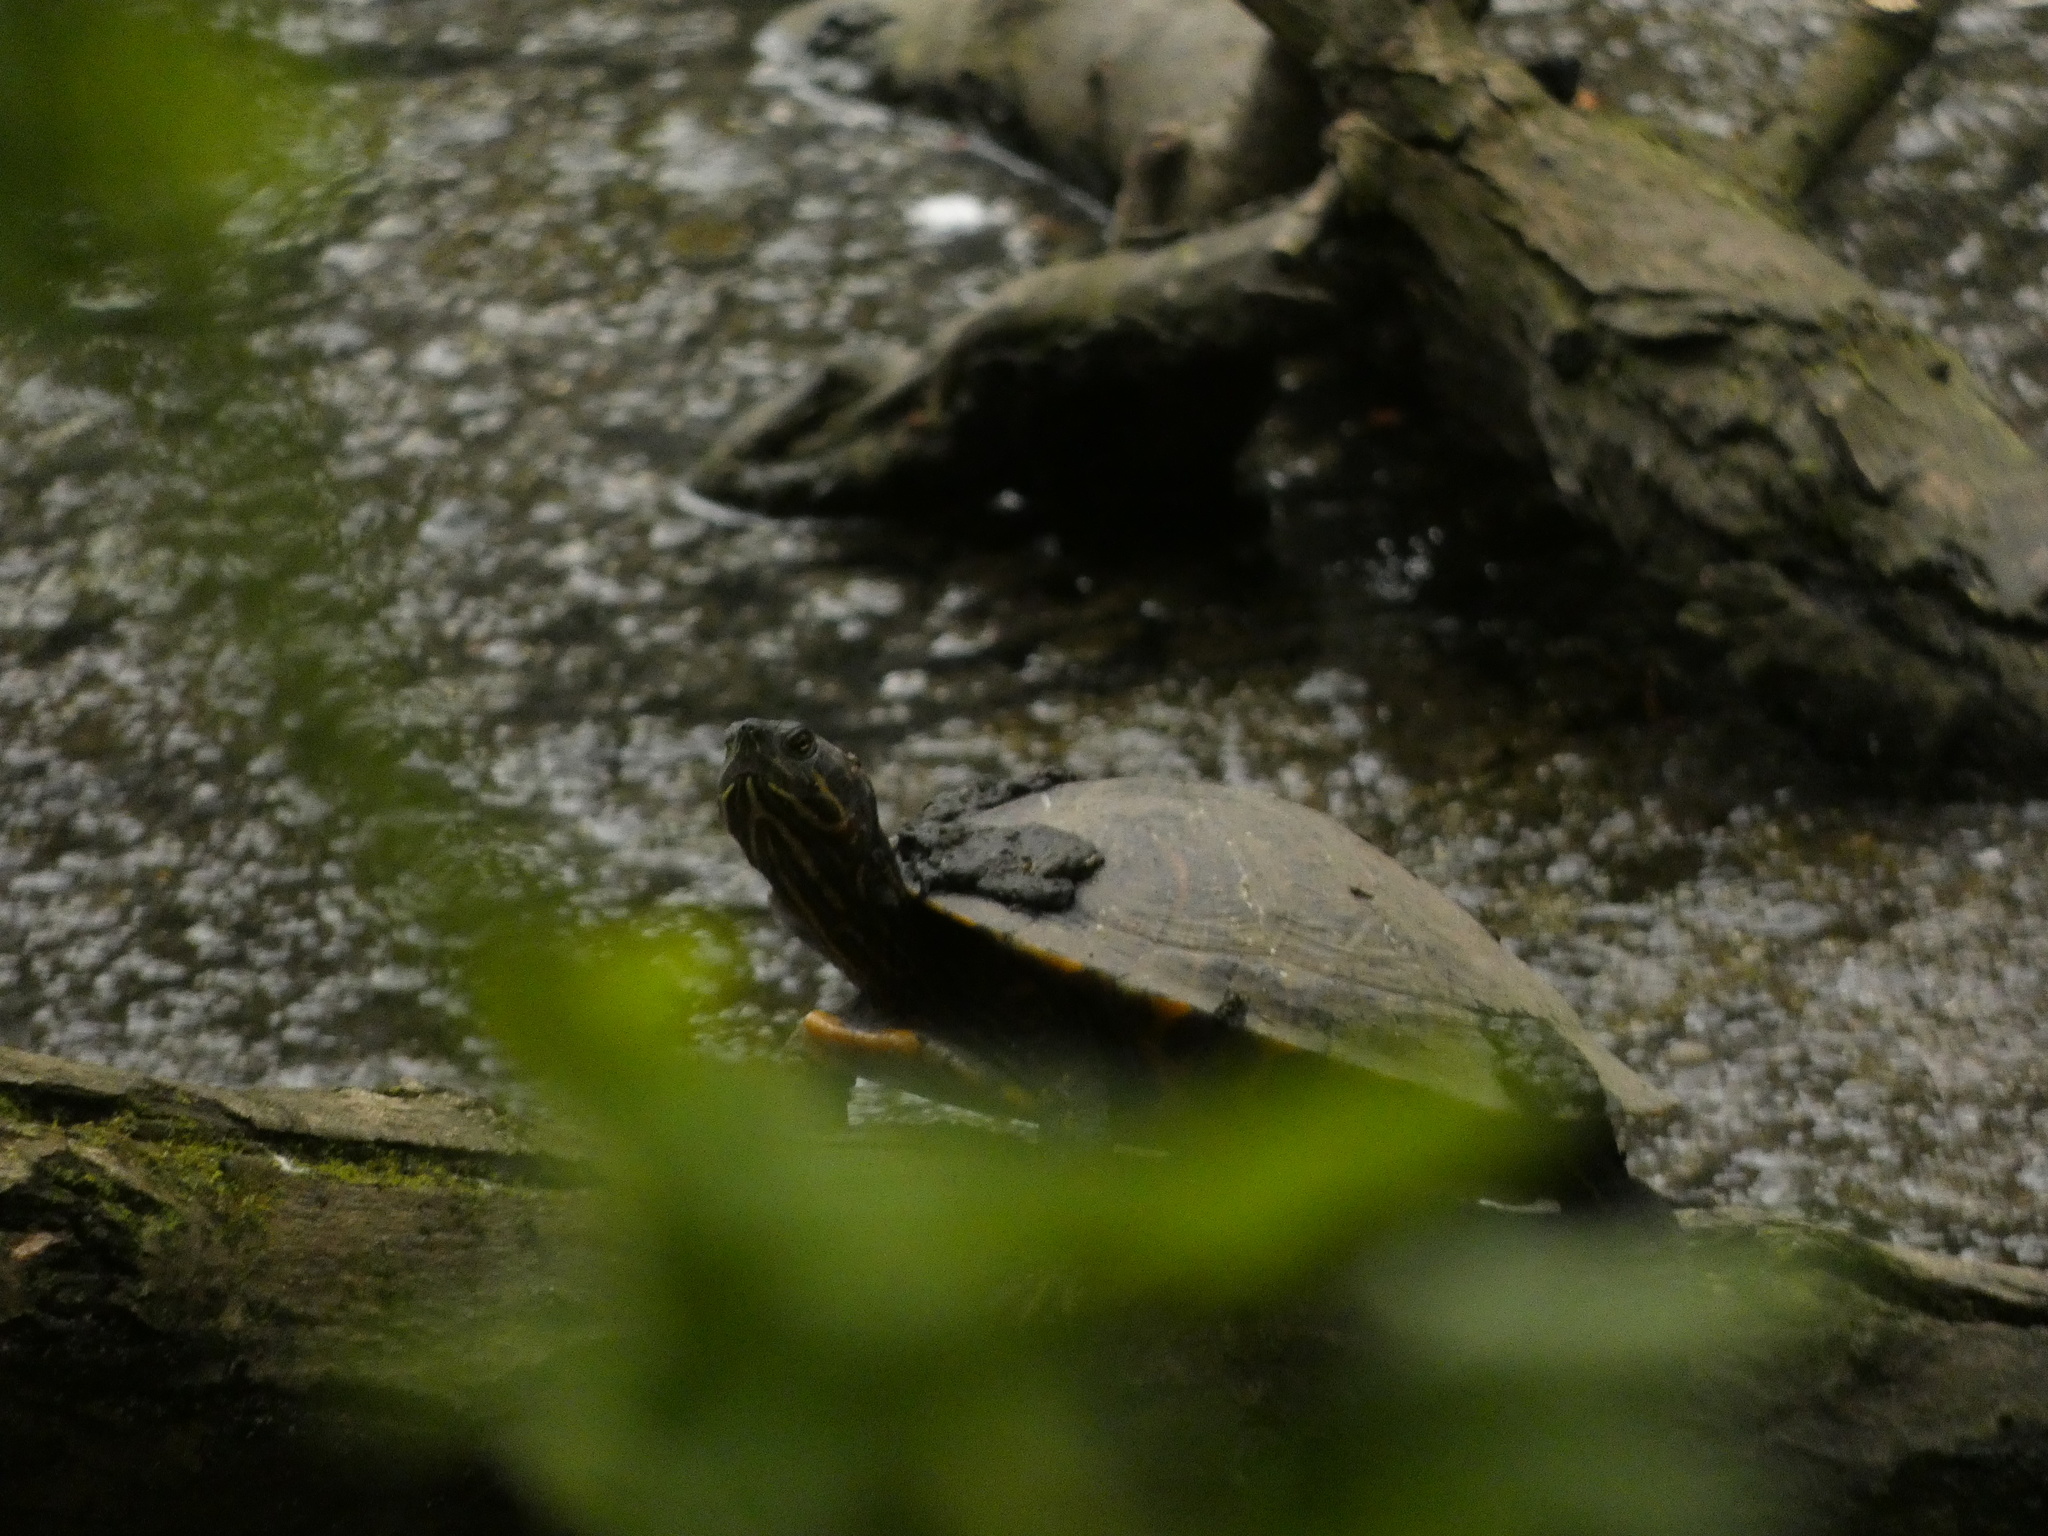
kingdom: Animalia
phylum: Chordata
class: Testudines
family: Emydidae
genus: Trachemys
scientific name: Trachemys scripta
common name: Slider
